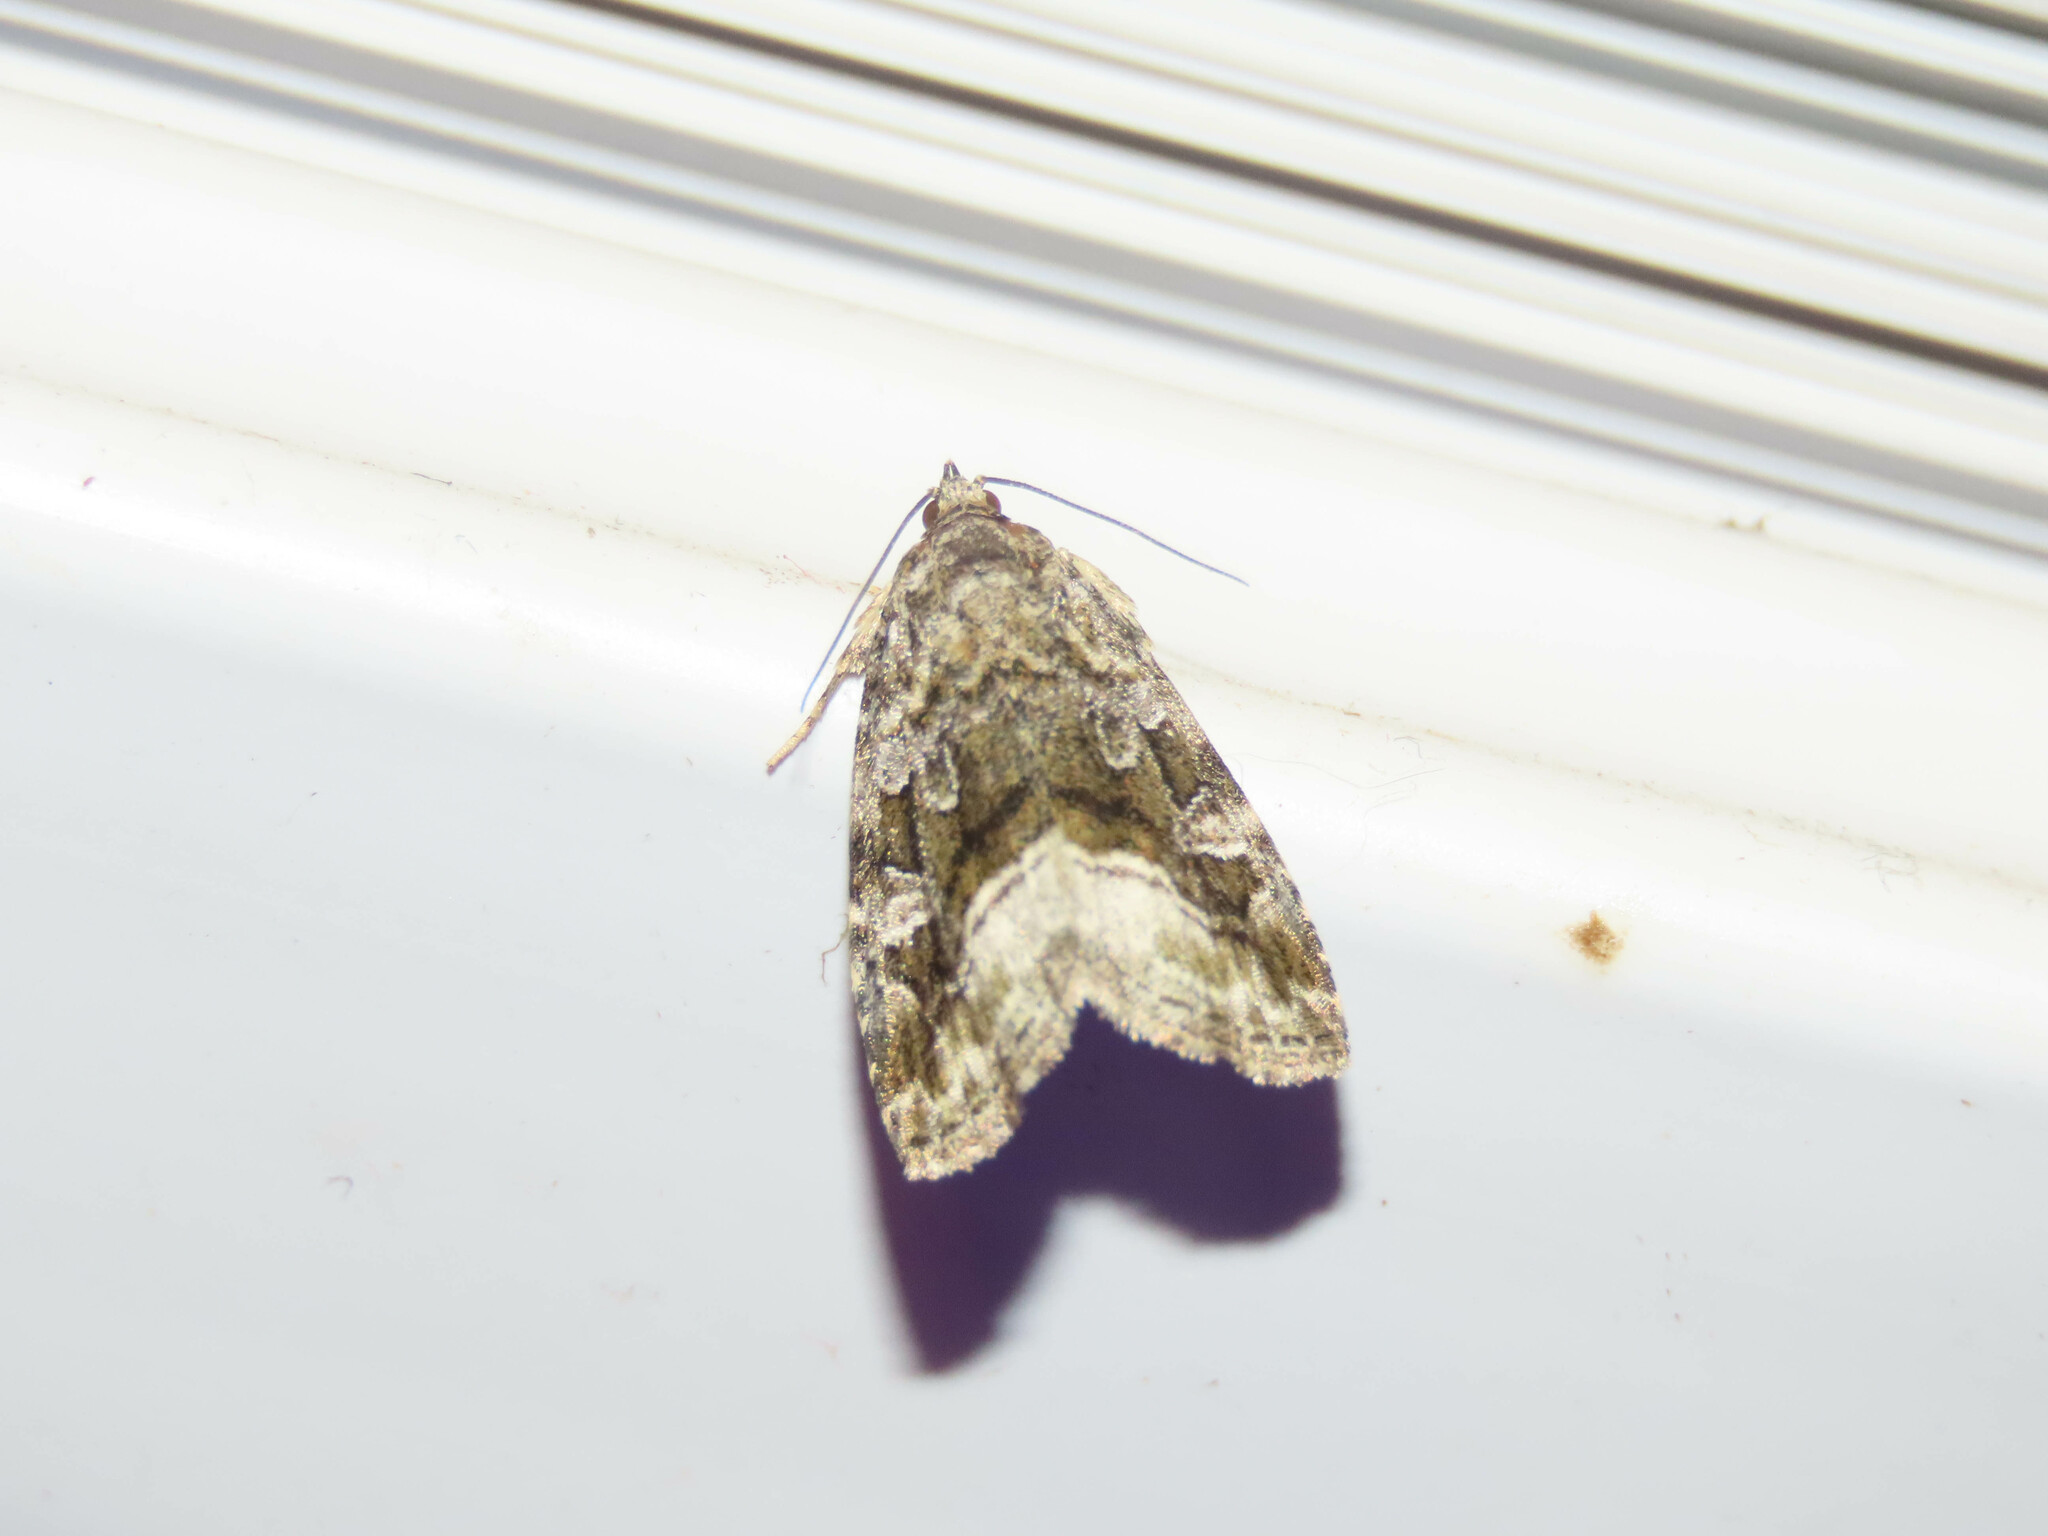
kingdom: Animalia
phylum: Arthropoda
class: Insecta
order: Lepidoptera
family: Noctuidae
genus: Protodeltote
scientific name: Protodeltote muscosula
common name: Large mossy glyph
